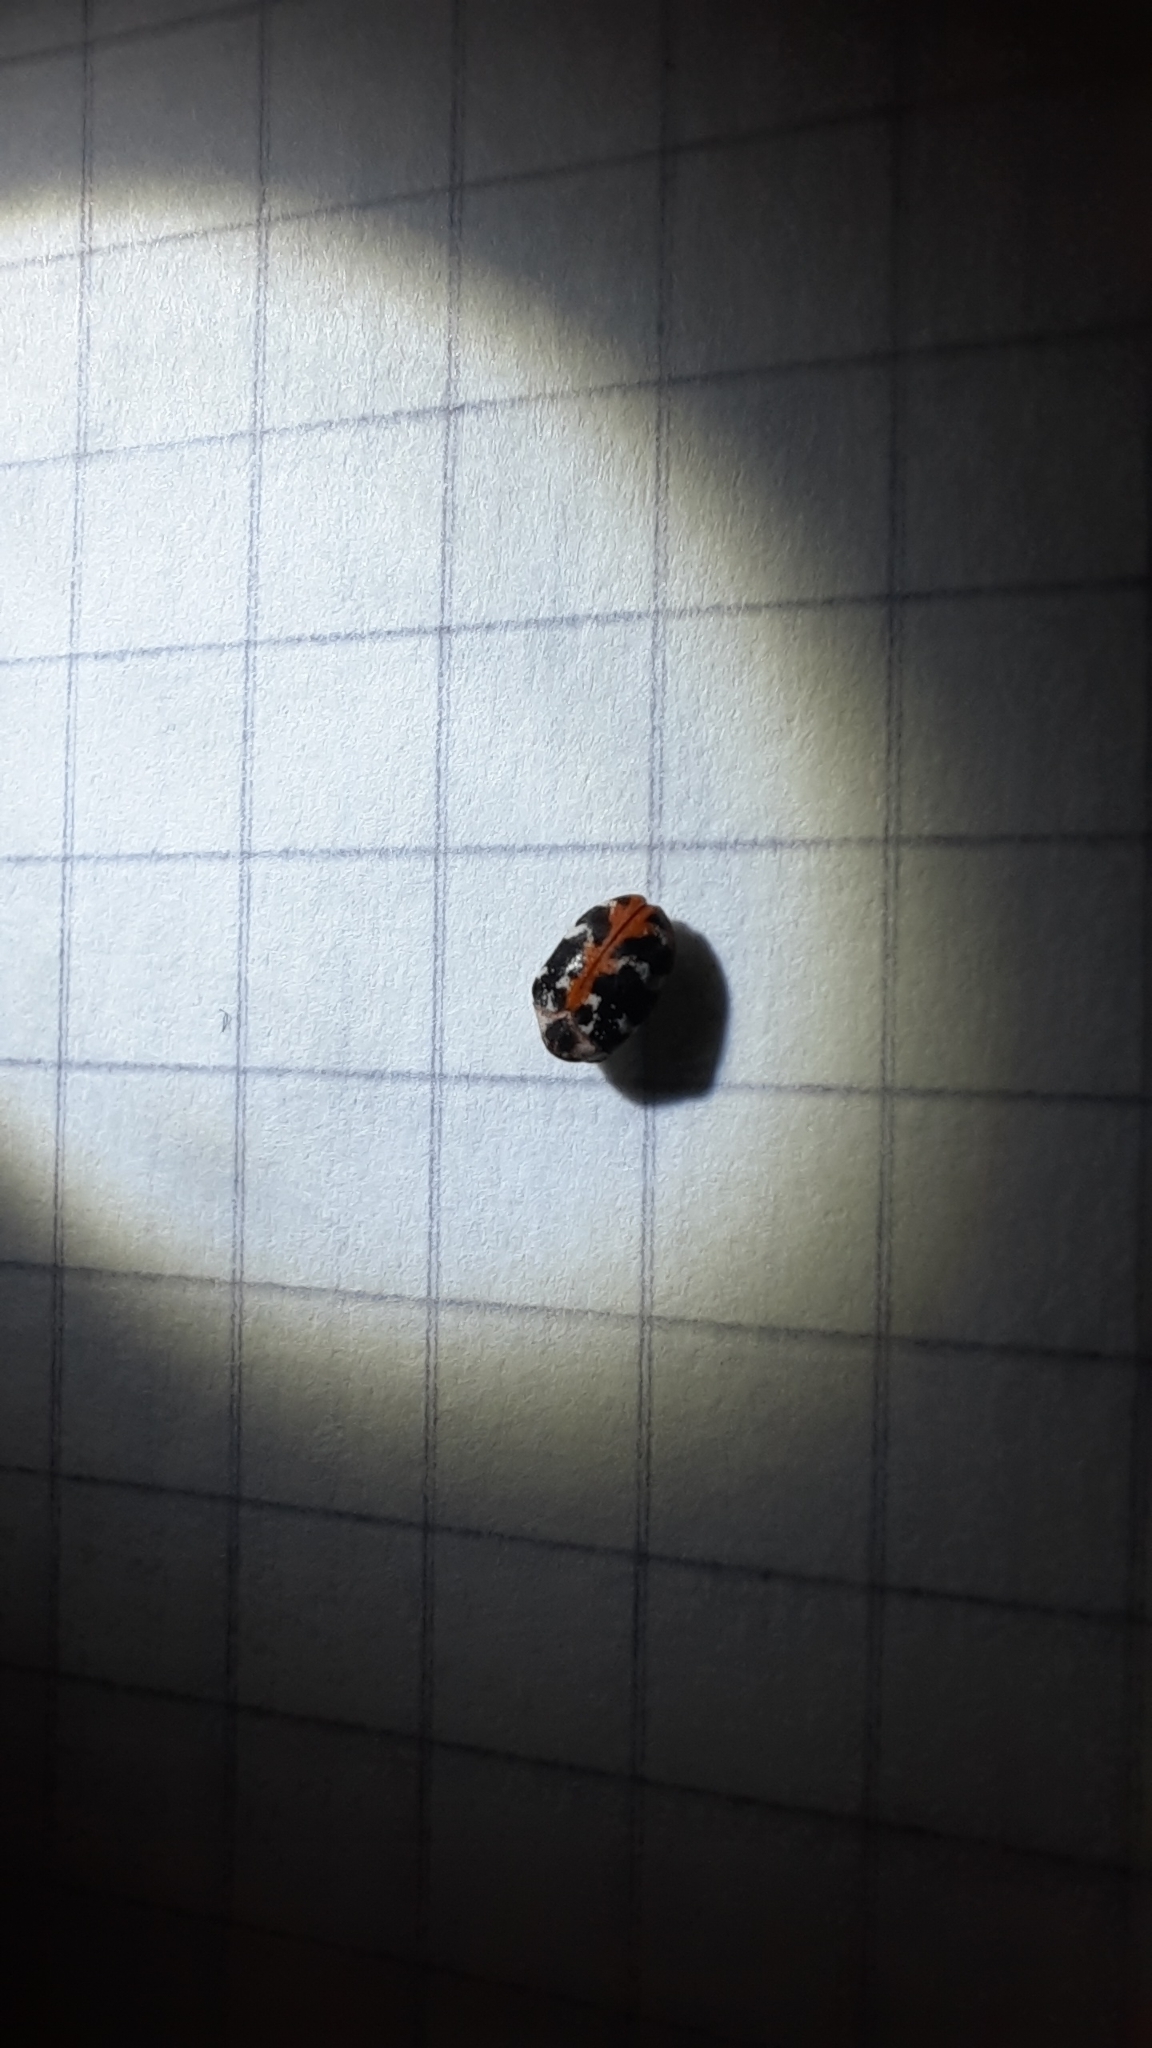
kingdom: Animalia
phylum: Arthropoda
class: Insecta
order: Coleoptera
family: Dermestidae
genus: Anthrenus
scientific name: Anthrenus scrophulariae
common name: Buffalo carpet beetle
